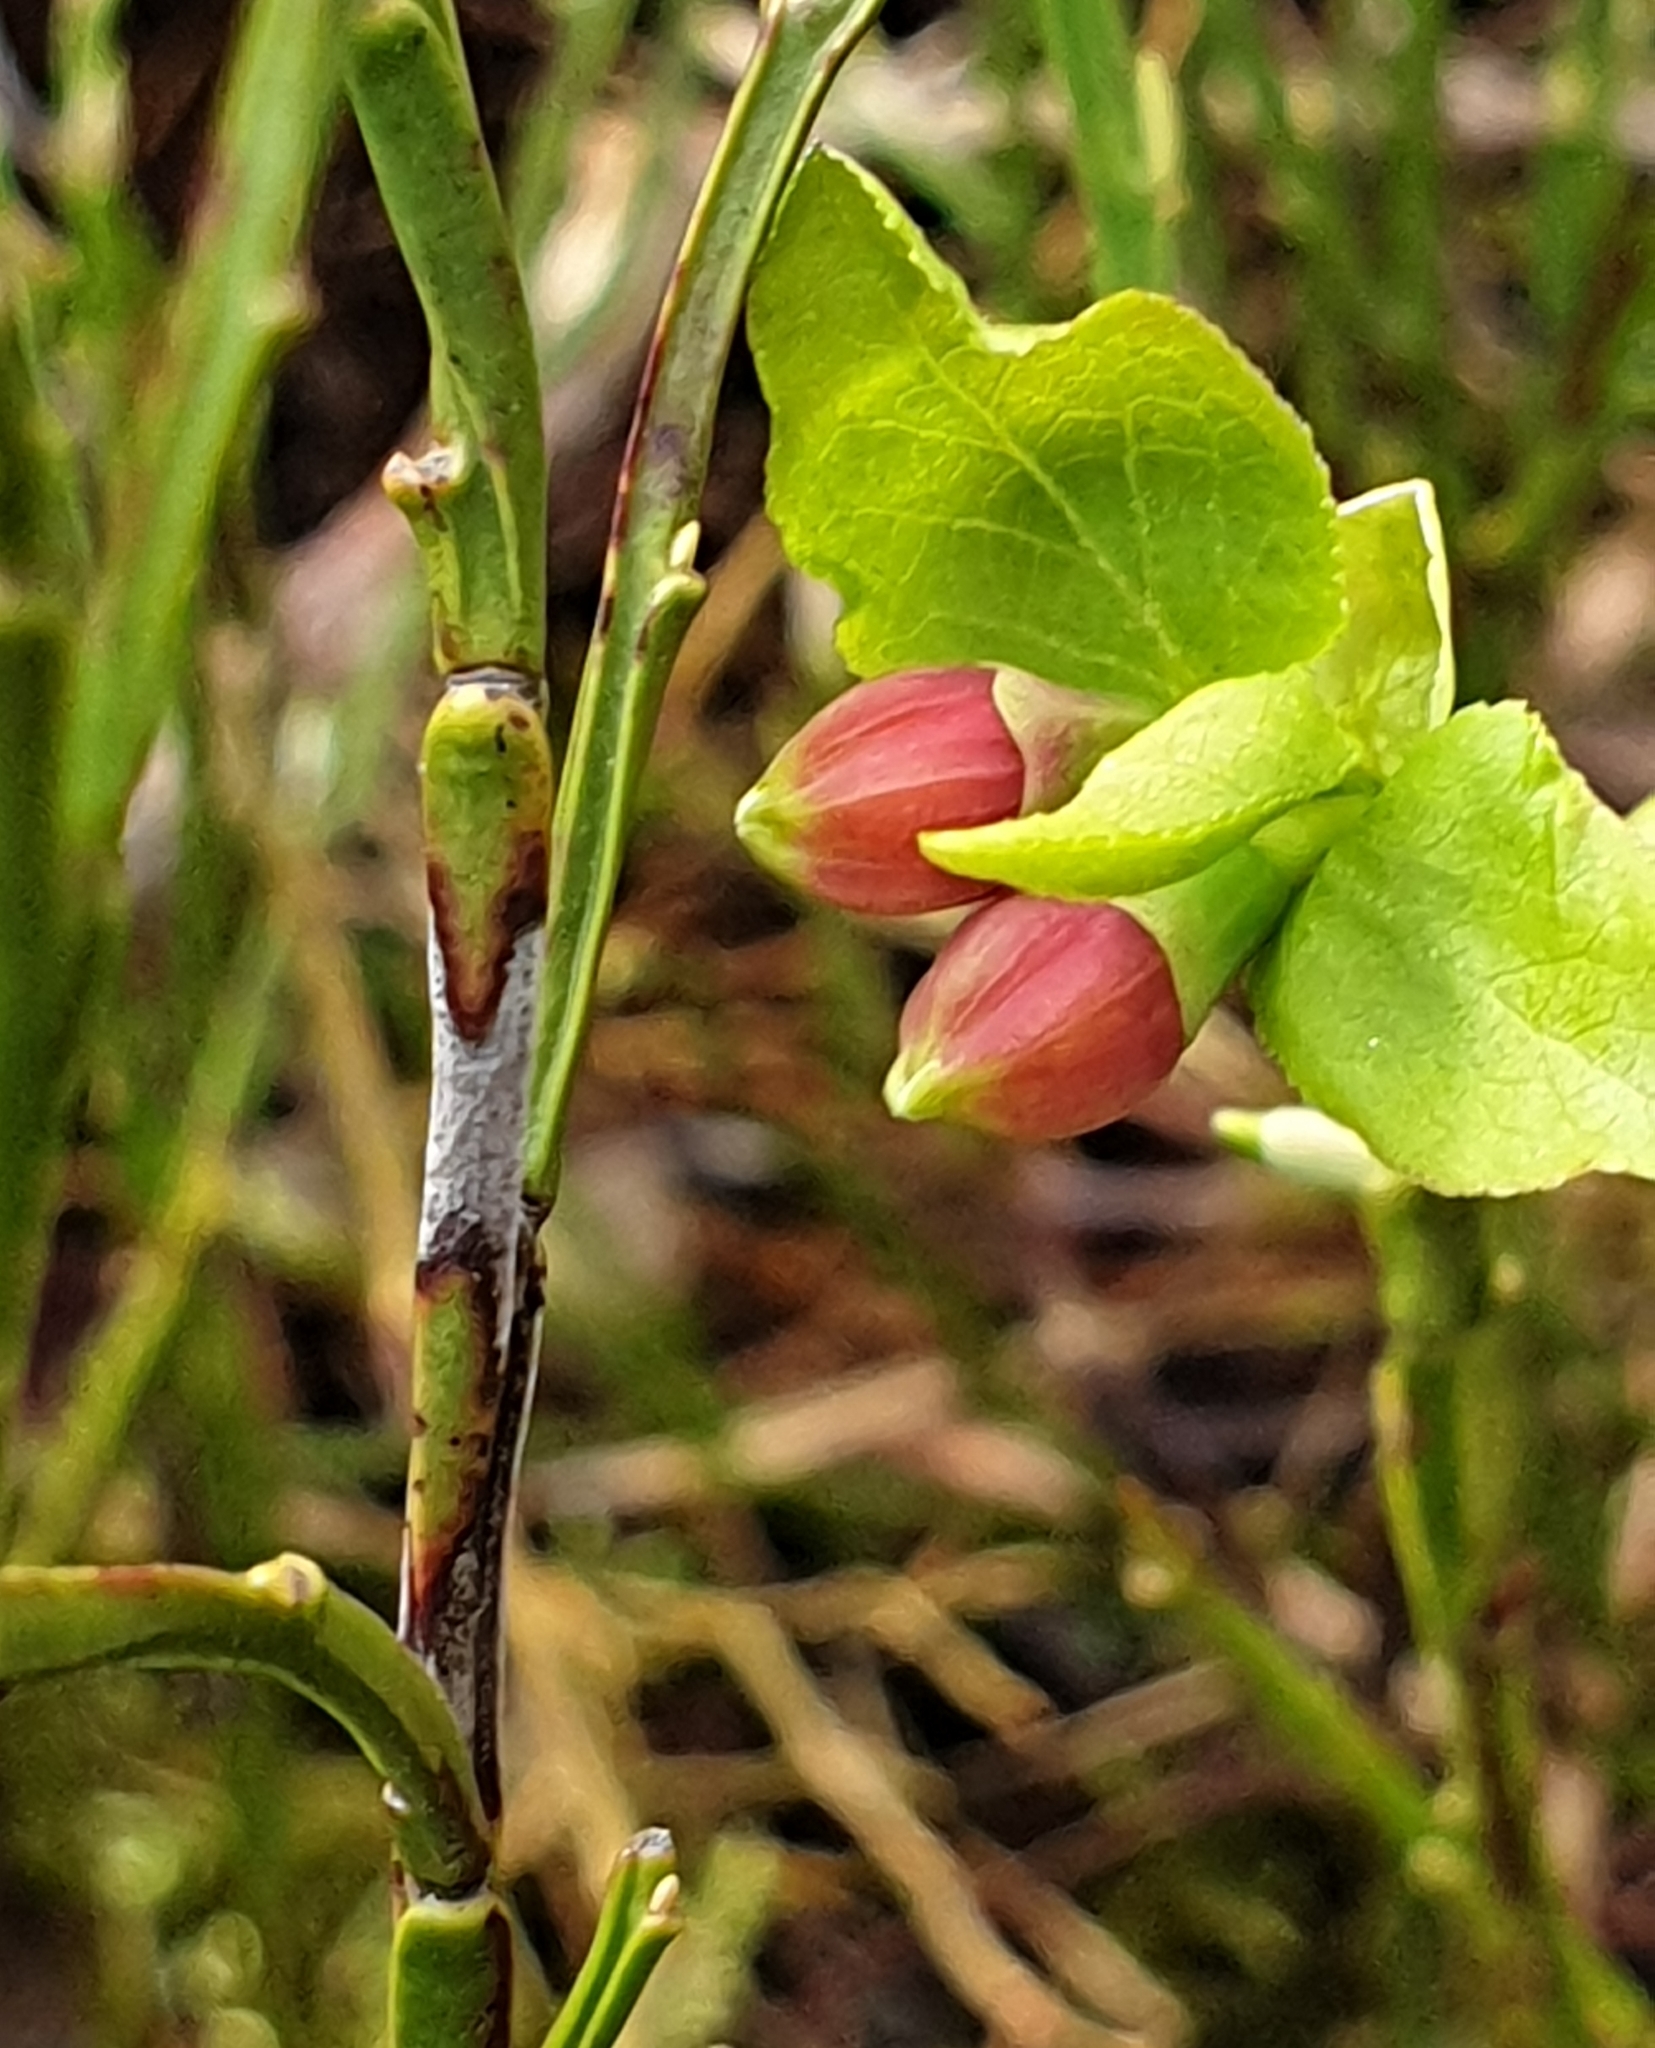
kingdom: Plantae
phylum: Tracheophyta
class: Magnoliopsida
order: Ericales
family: Ericaceae
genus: Vaccinium
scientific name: Vaccinium myrtillus
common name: Bilberry
